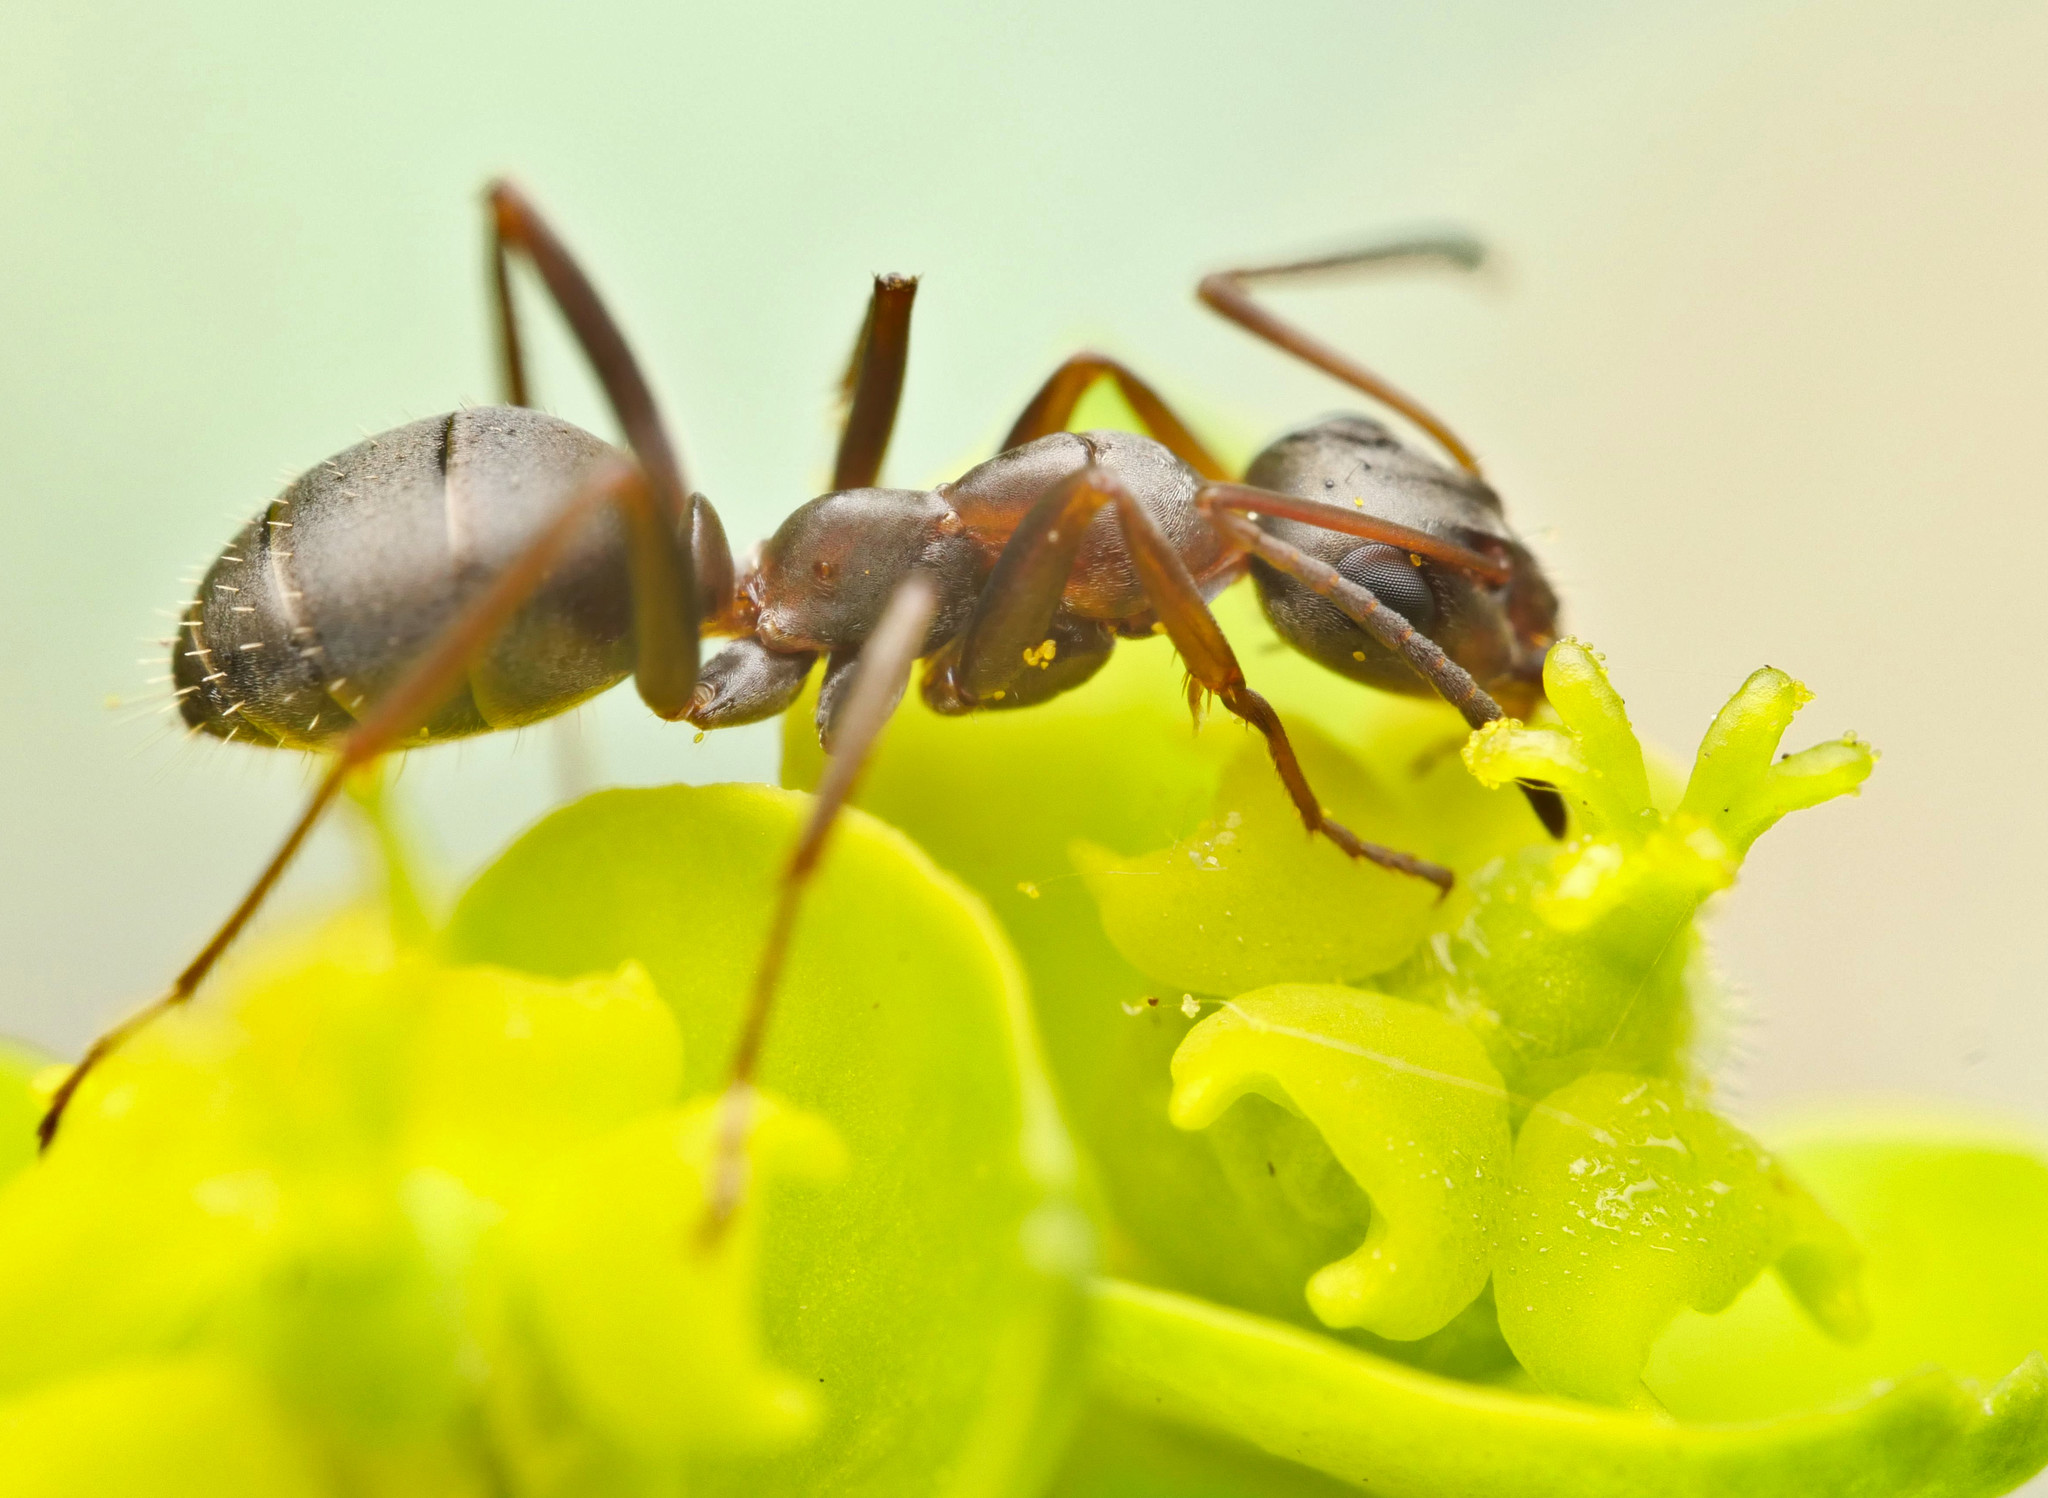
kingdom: Animalia
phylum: Arthropoda
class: Insecta
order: Hymenoptera
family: Formicidae
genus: Formica
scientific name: Formica cunicularia
